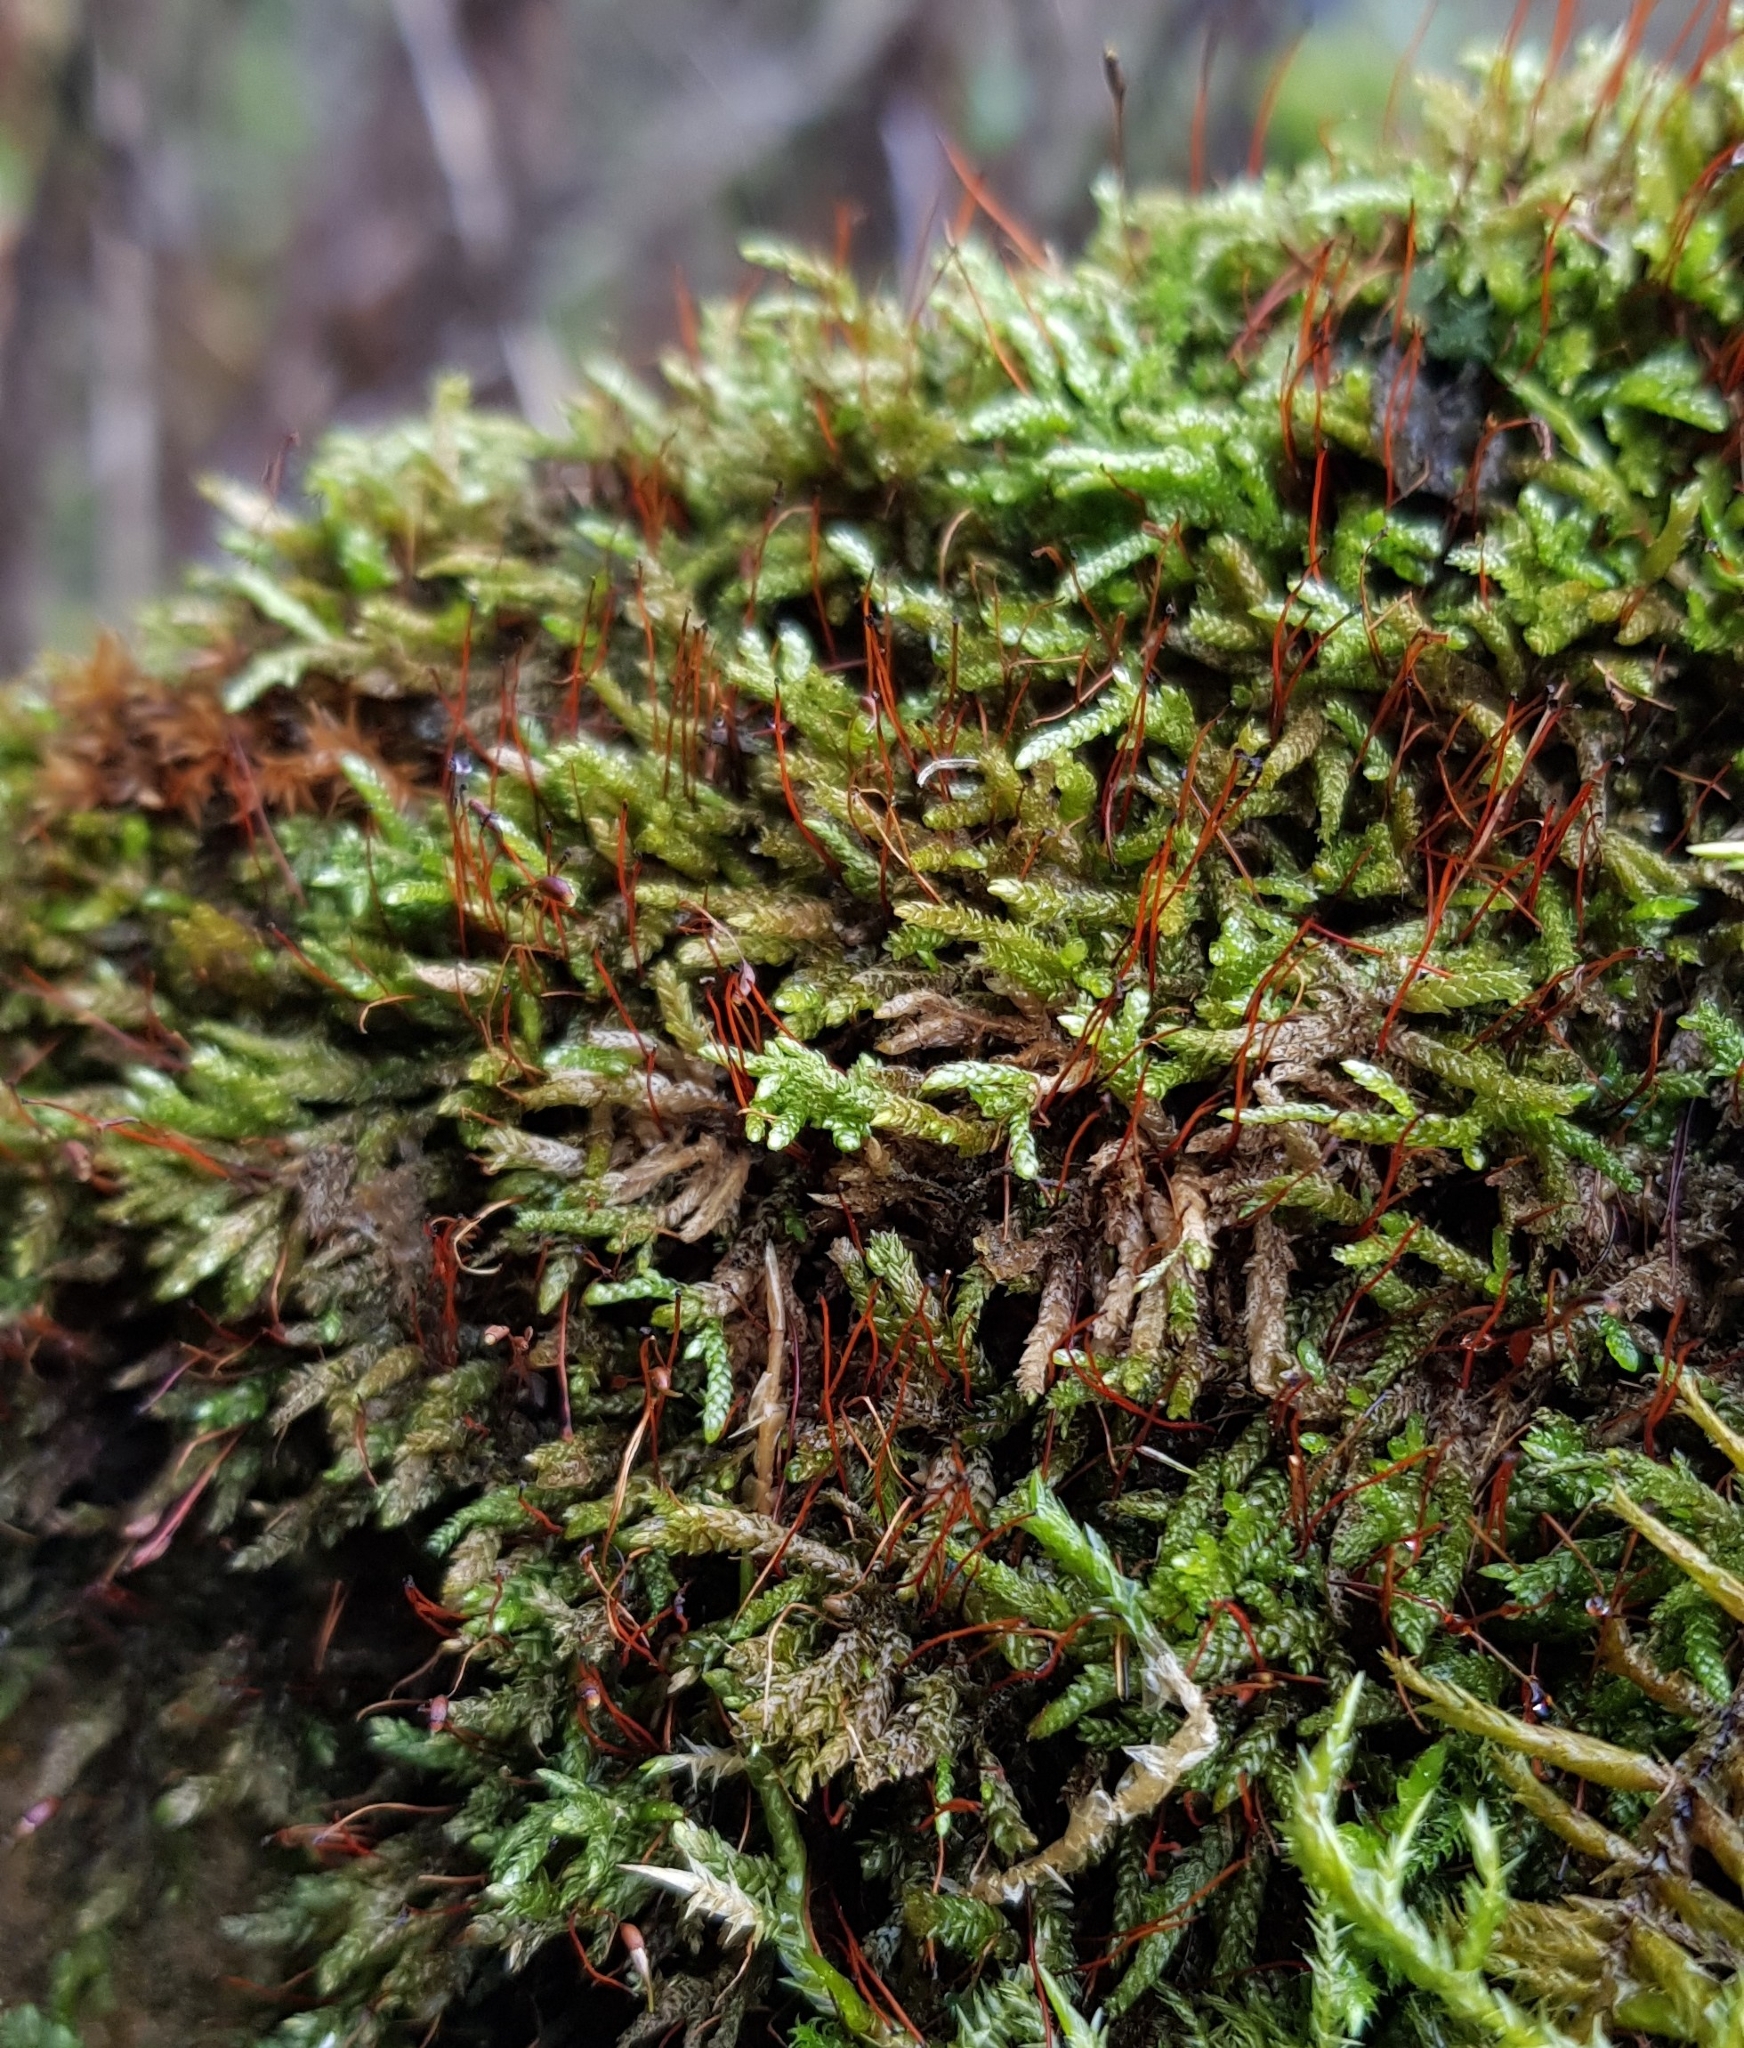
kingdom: Plantae
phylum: Bryophyta
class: Bryopsida
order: Hypnales
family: Brachytheciaceae
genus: Rhynchostegium
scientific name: Rhynchostegium murale
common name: Wall feather-moss
